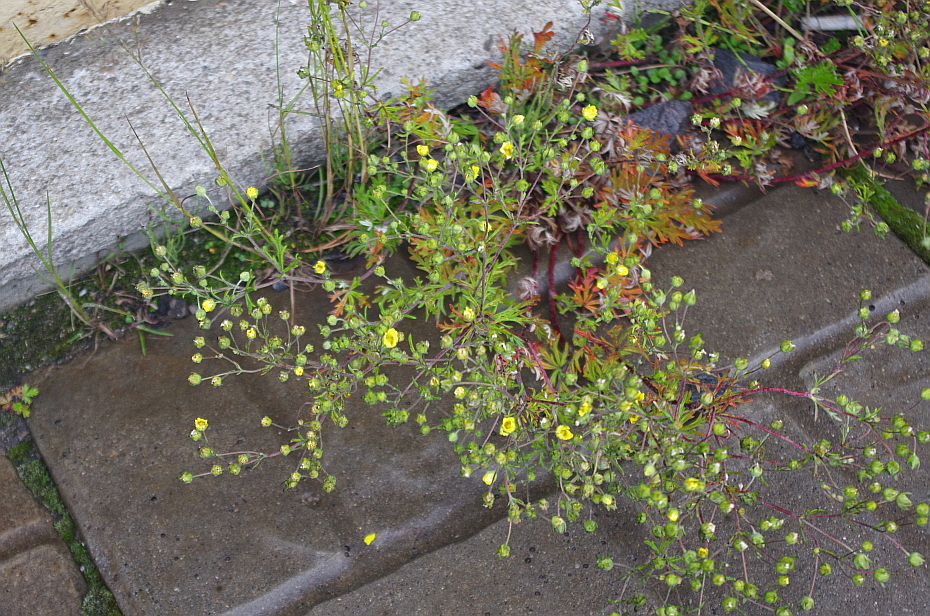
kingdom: Plantae
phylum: Tracheophyta
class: Magnoliopsida
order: Rosales
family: Rosaceae
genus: Potentilla
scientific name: Potentilla argentea
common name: Hoary cinquefoil
